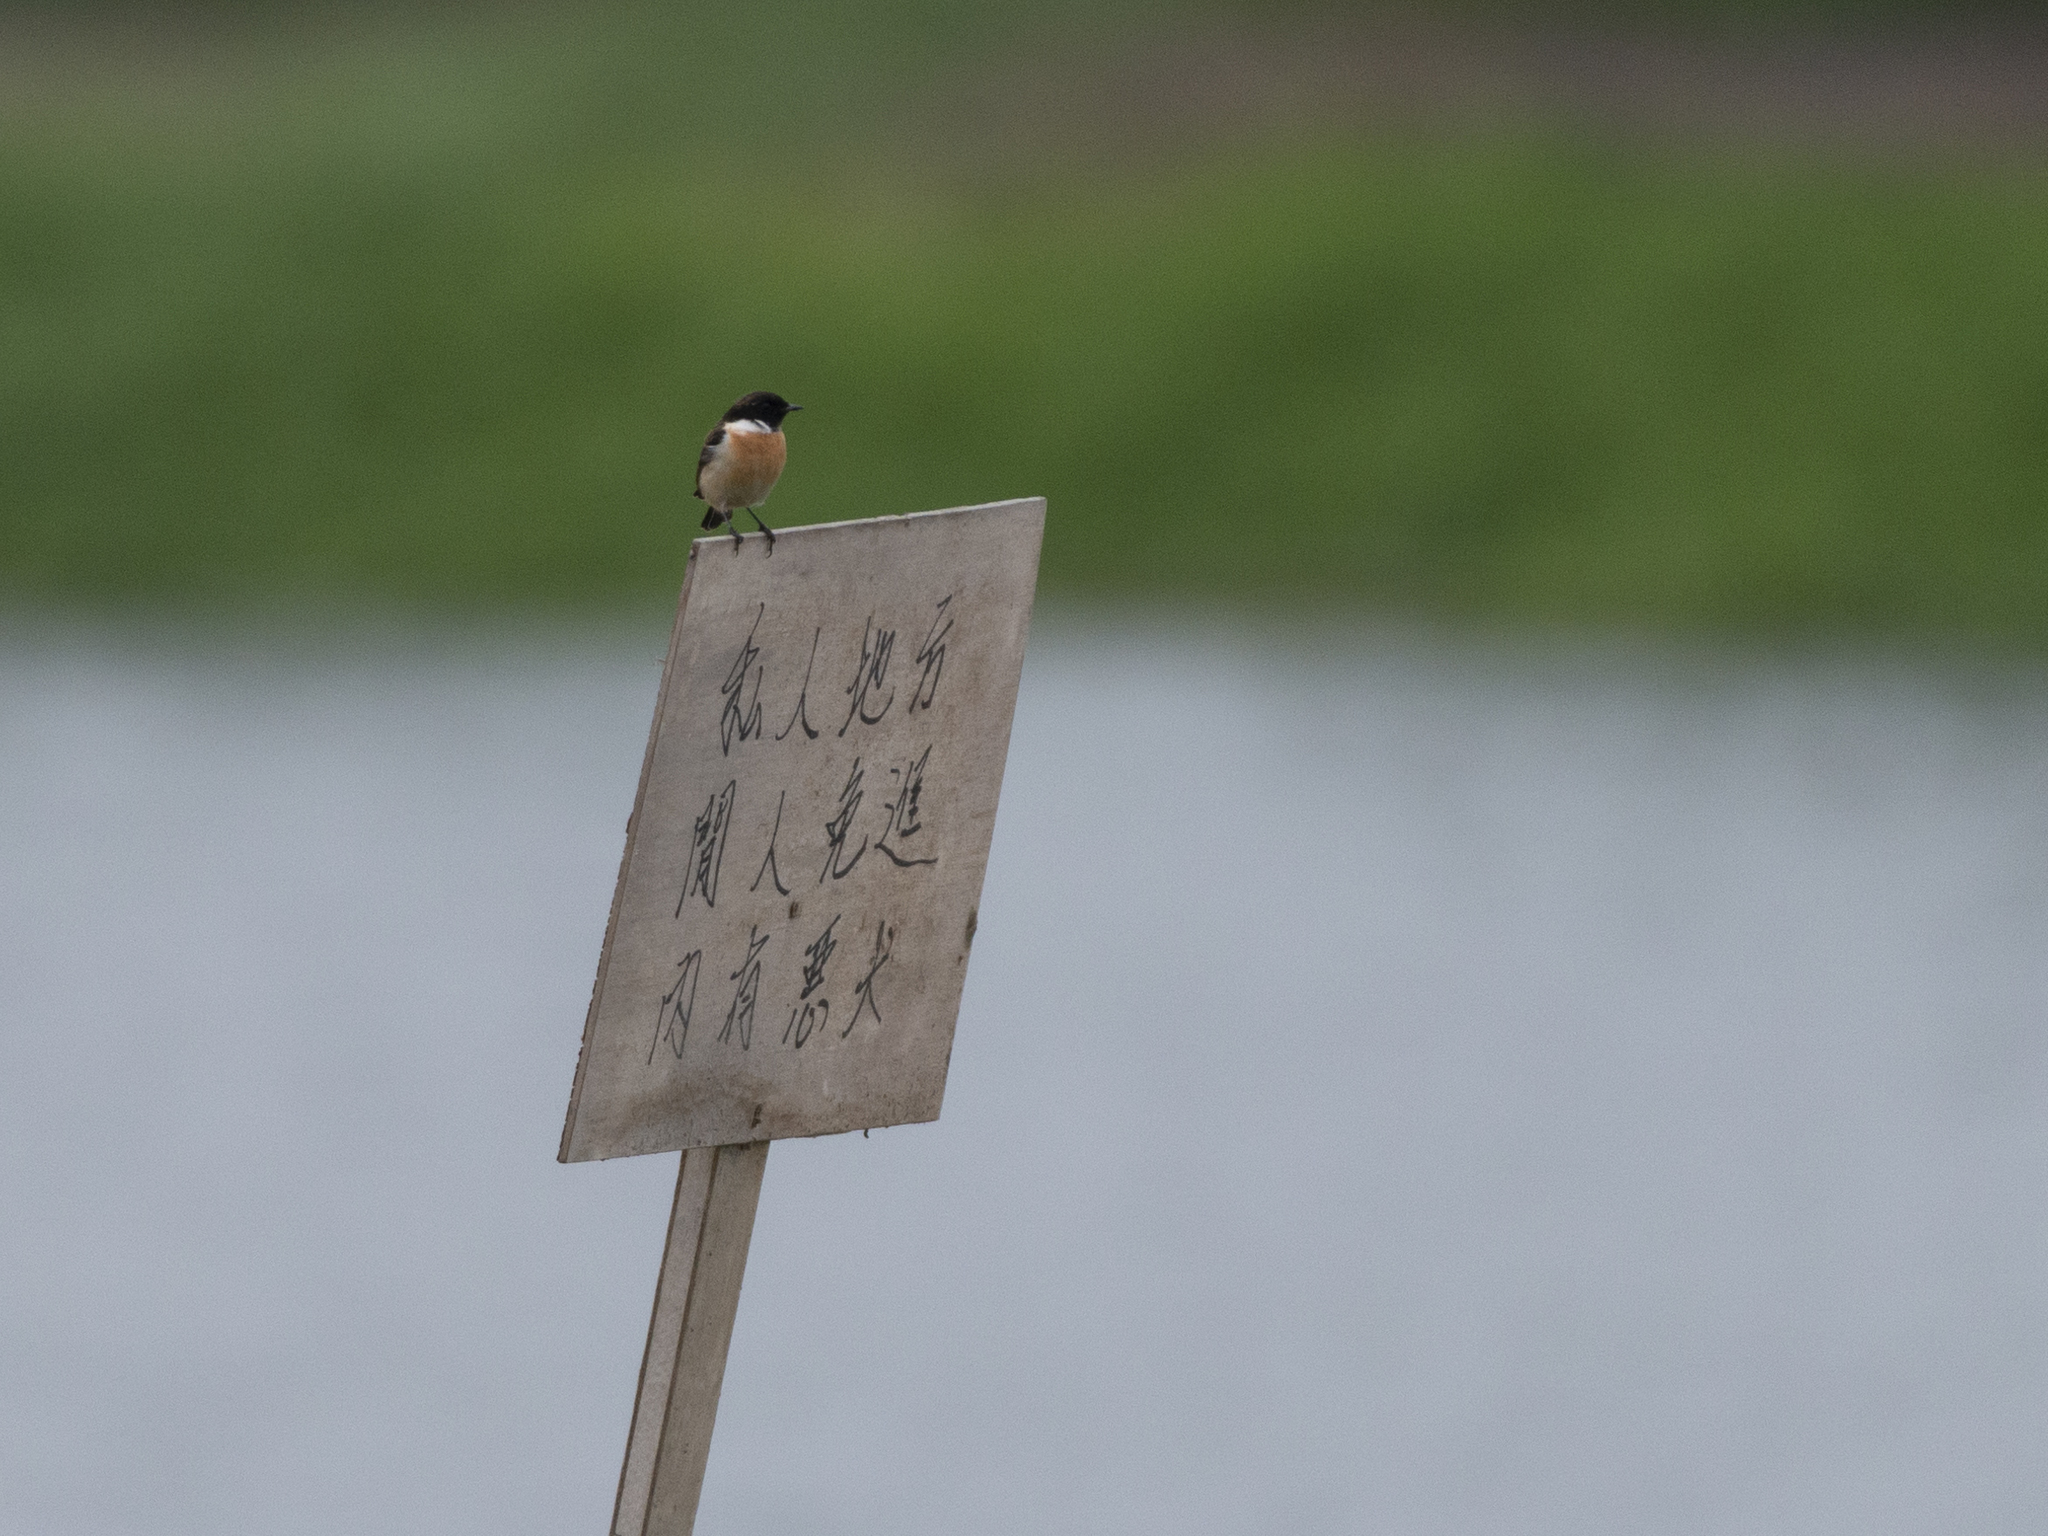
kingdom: Animalia
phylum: Chordata
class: Aves
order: Passeriformes
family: Muscicapidae
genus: Saxicola
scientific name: Saxicola maurus
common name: Siberian stonechat
